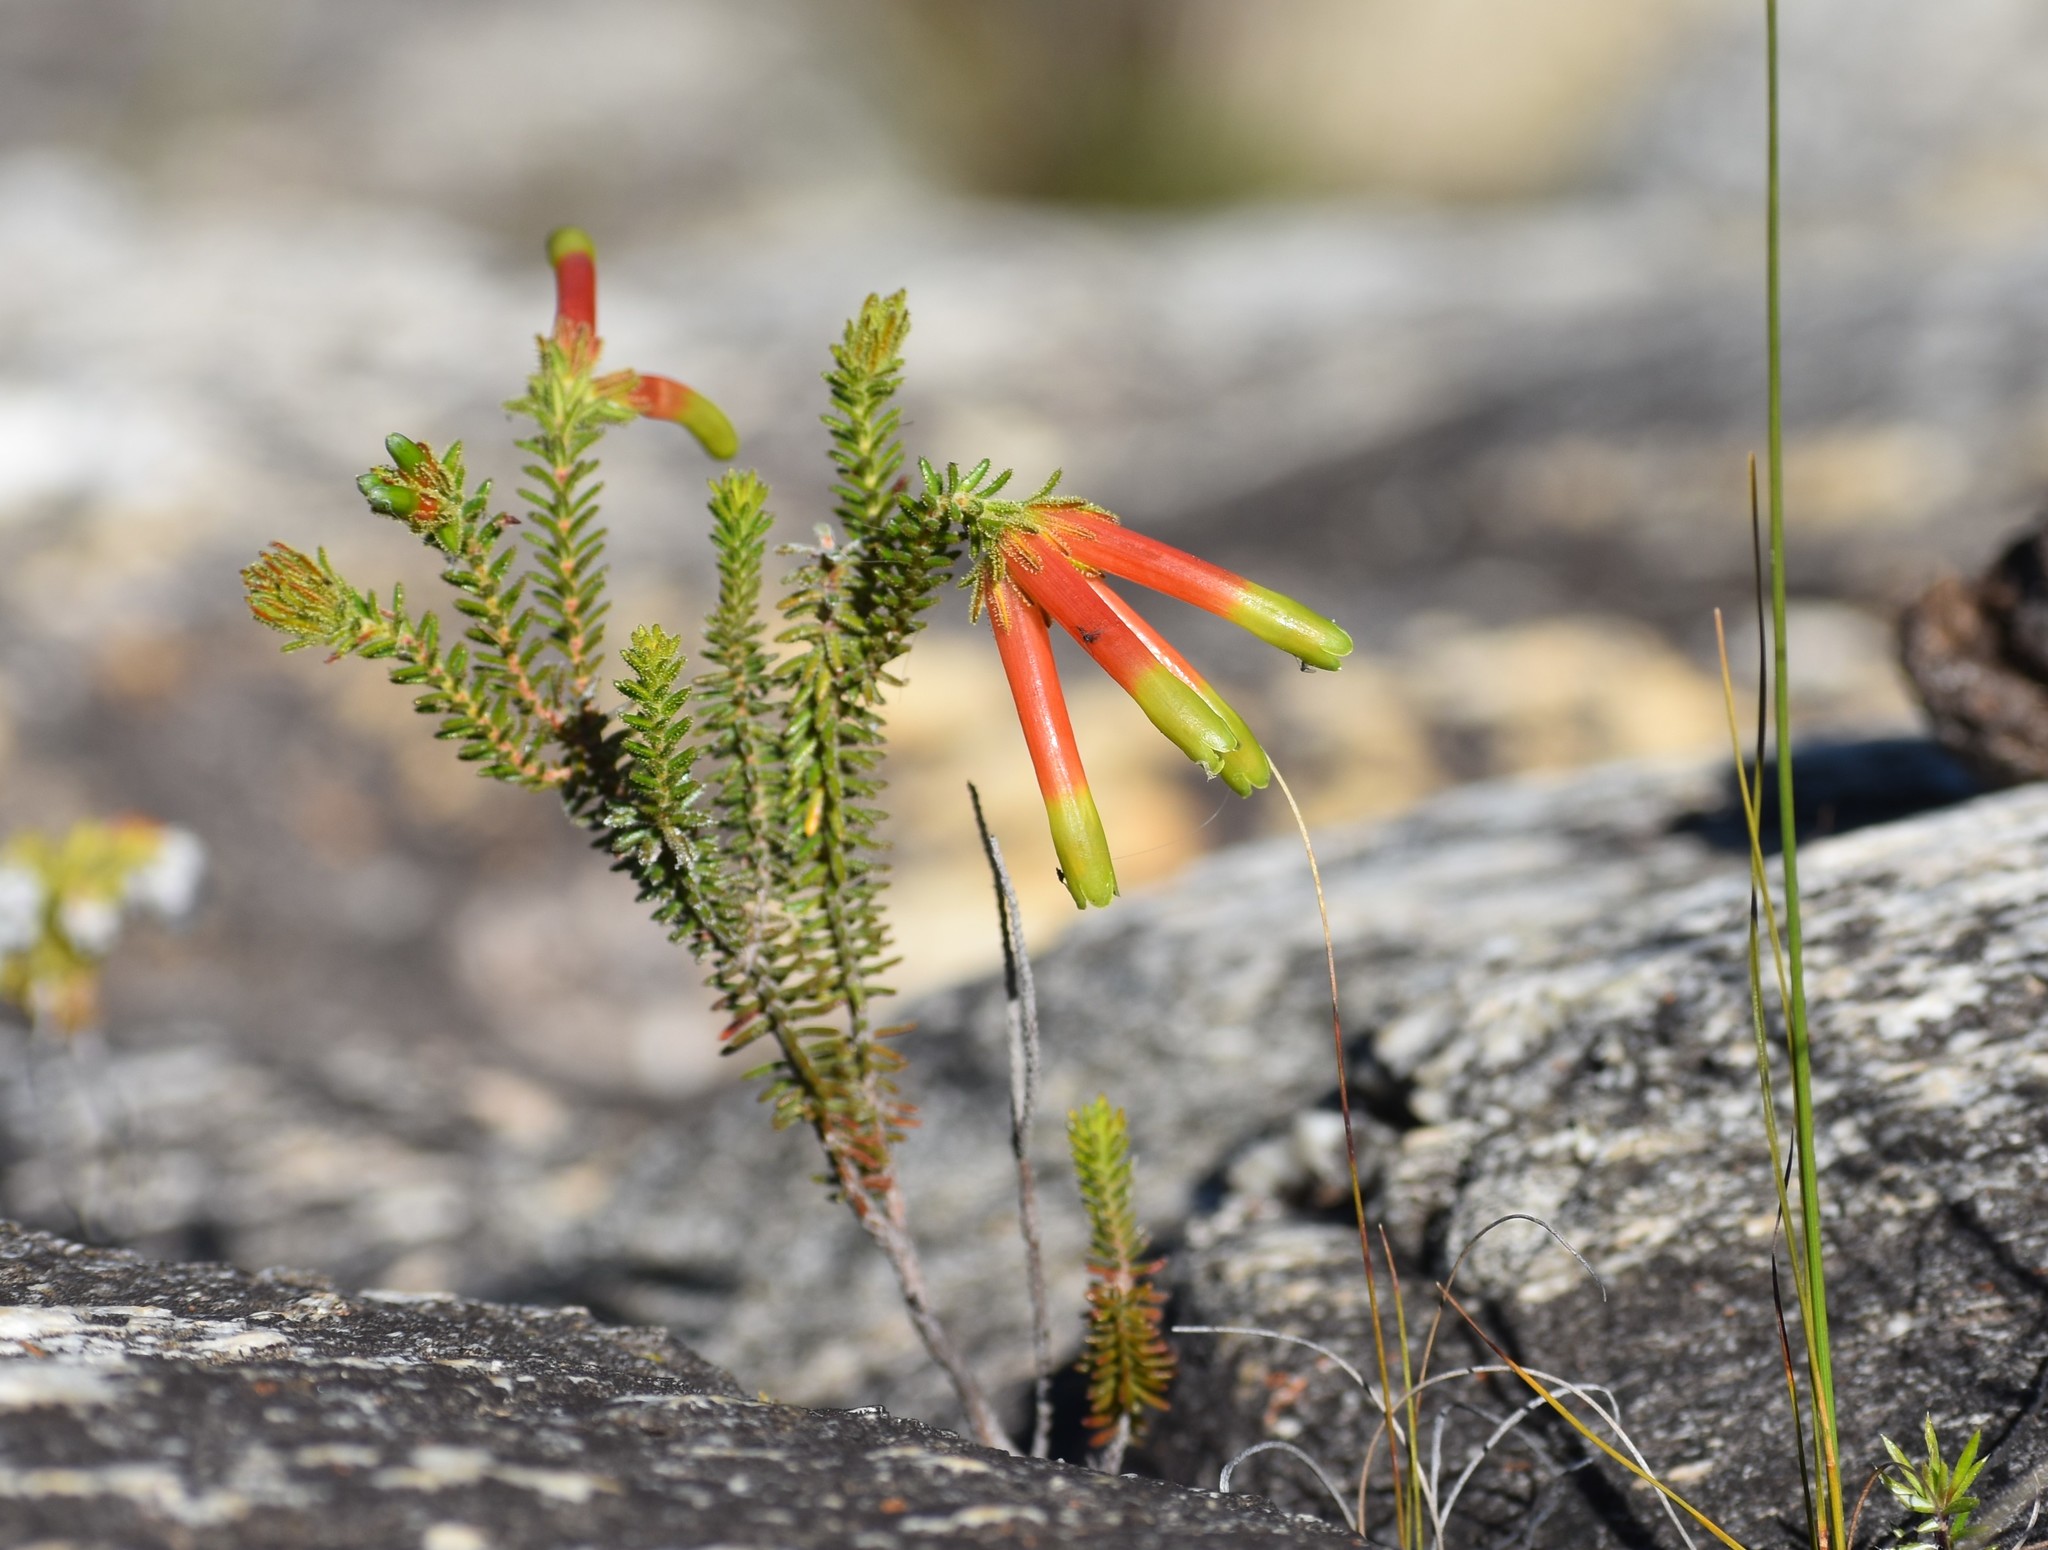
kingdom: Plantae
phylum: Tracheophyta
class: Magnoliopsida
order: Ericales
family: Ericaceae
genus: Erica
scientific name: Erica croceovirens
